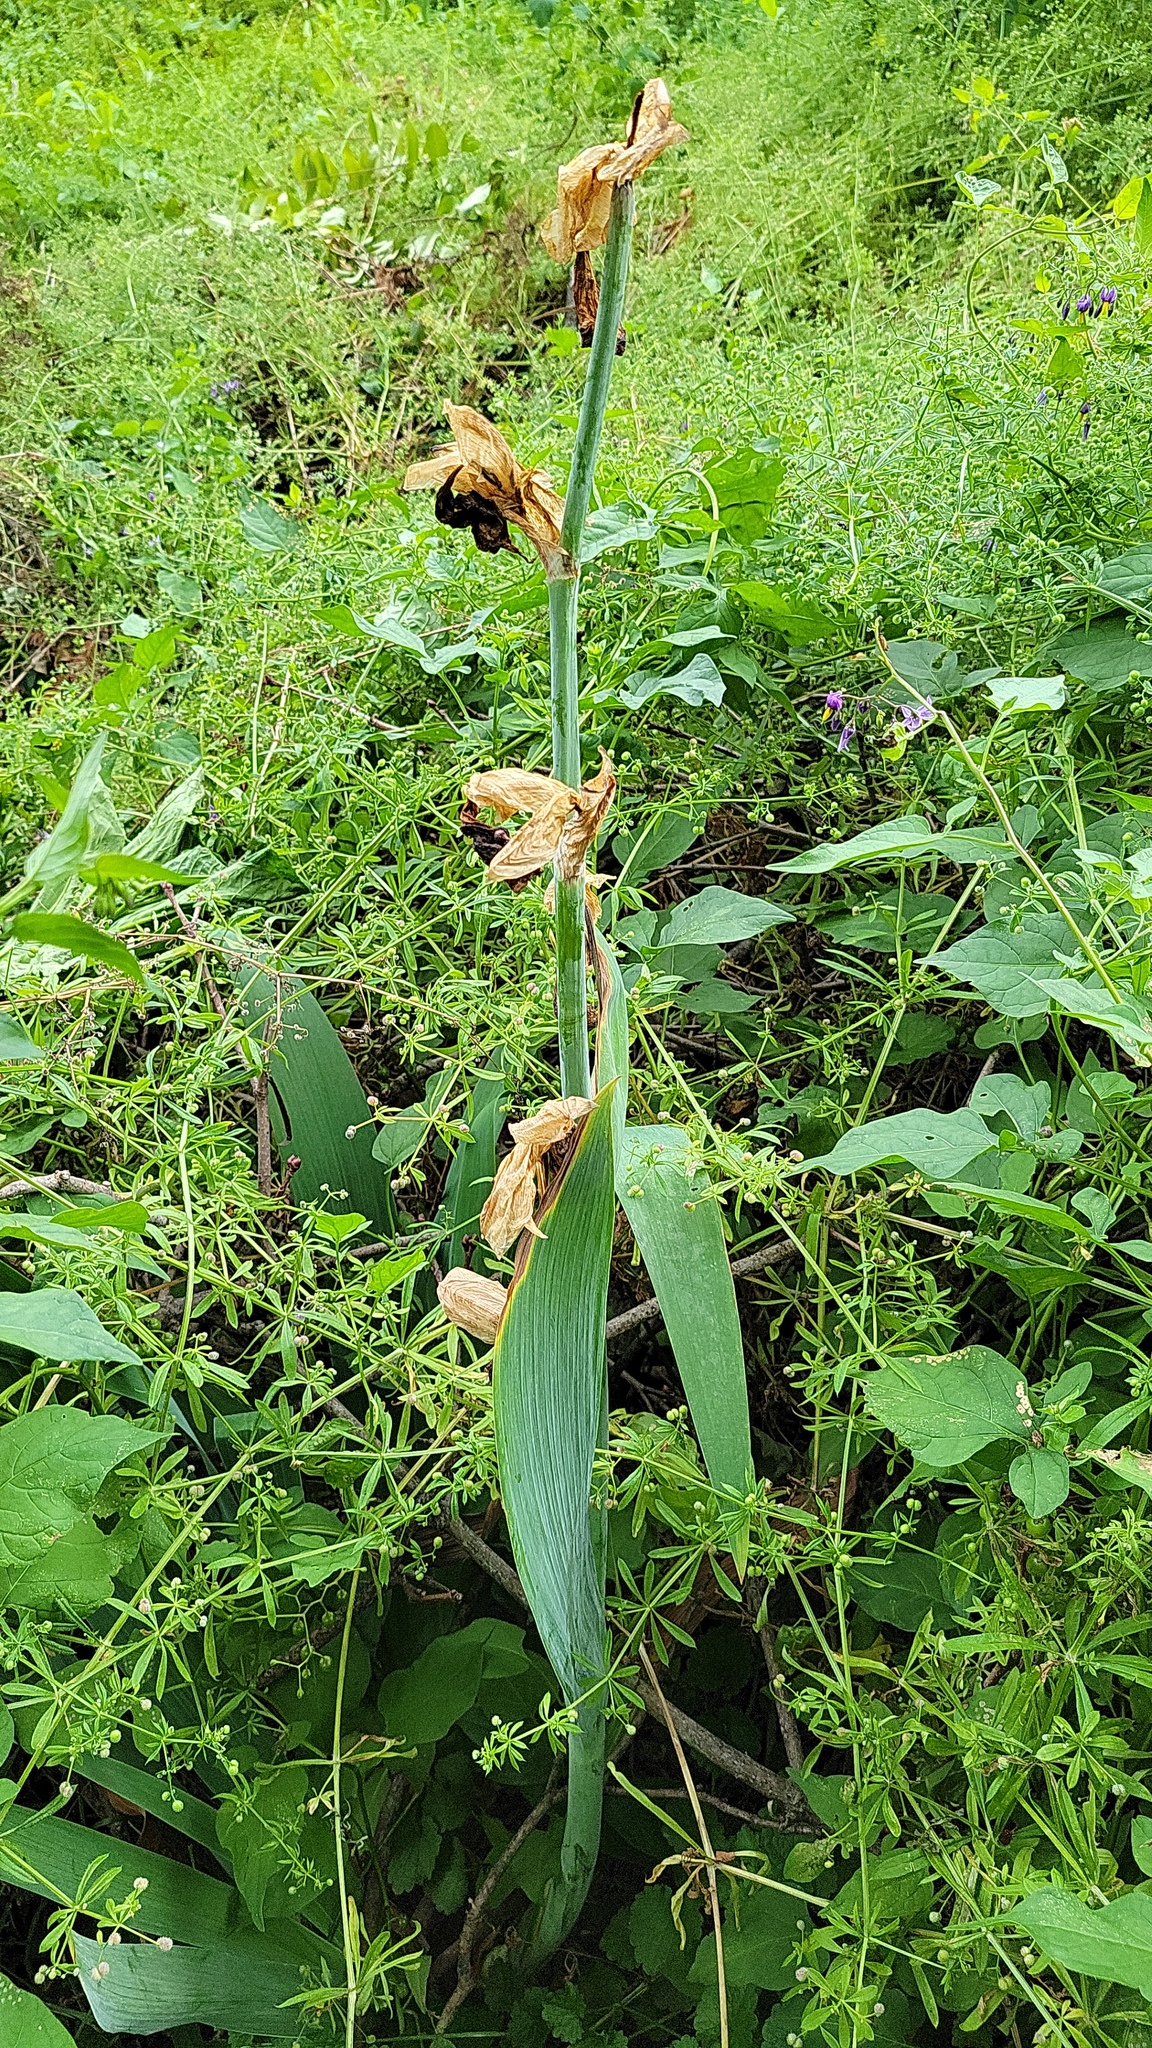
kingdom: Plantae
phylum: Tracheophyta
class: Liliopsida
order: Asparagales
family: Iridaceae
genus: Iris
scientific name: Iris hybrida
